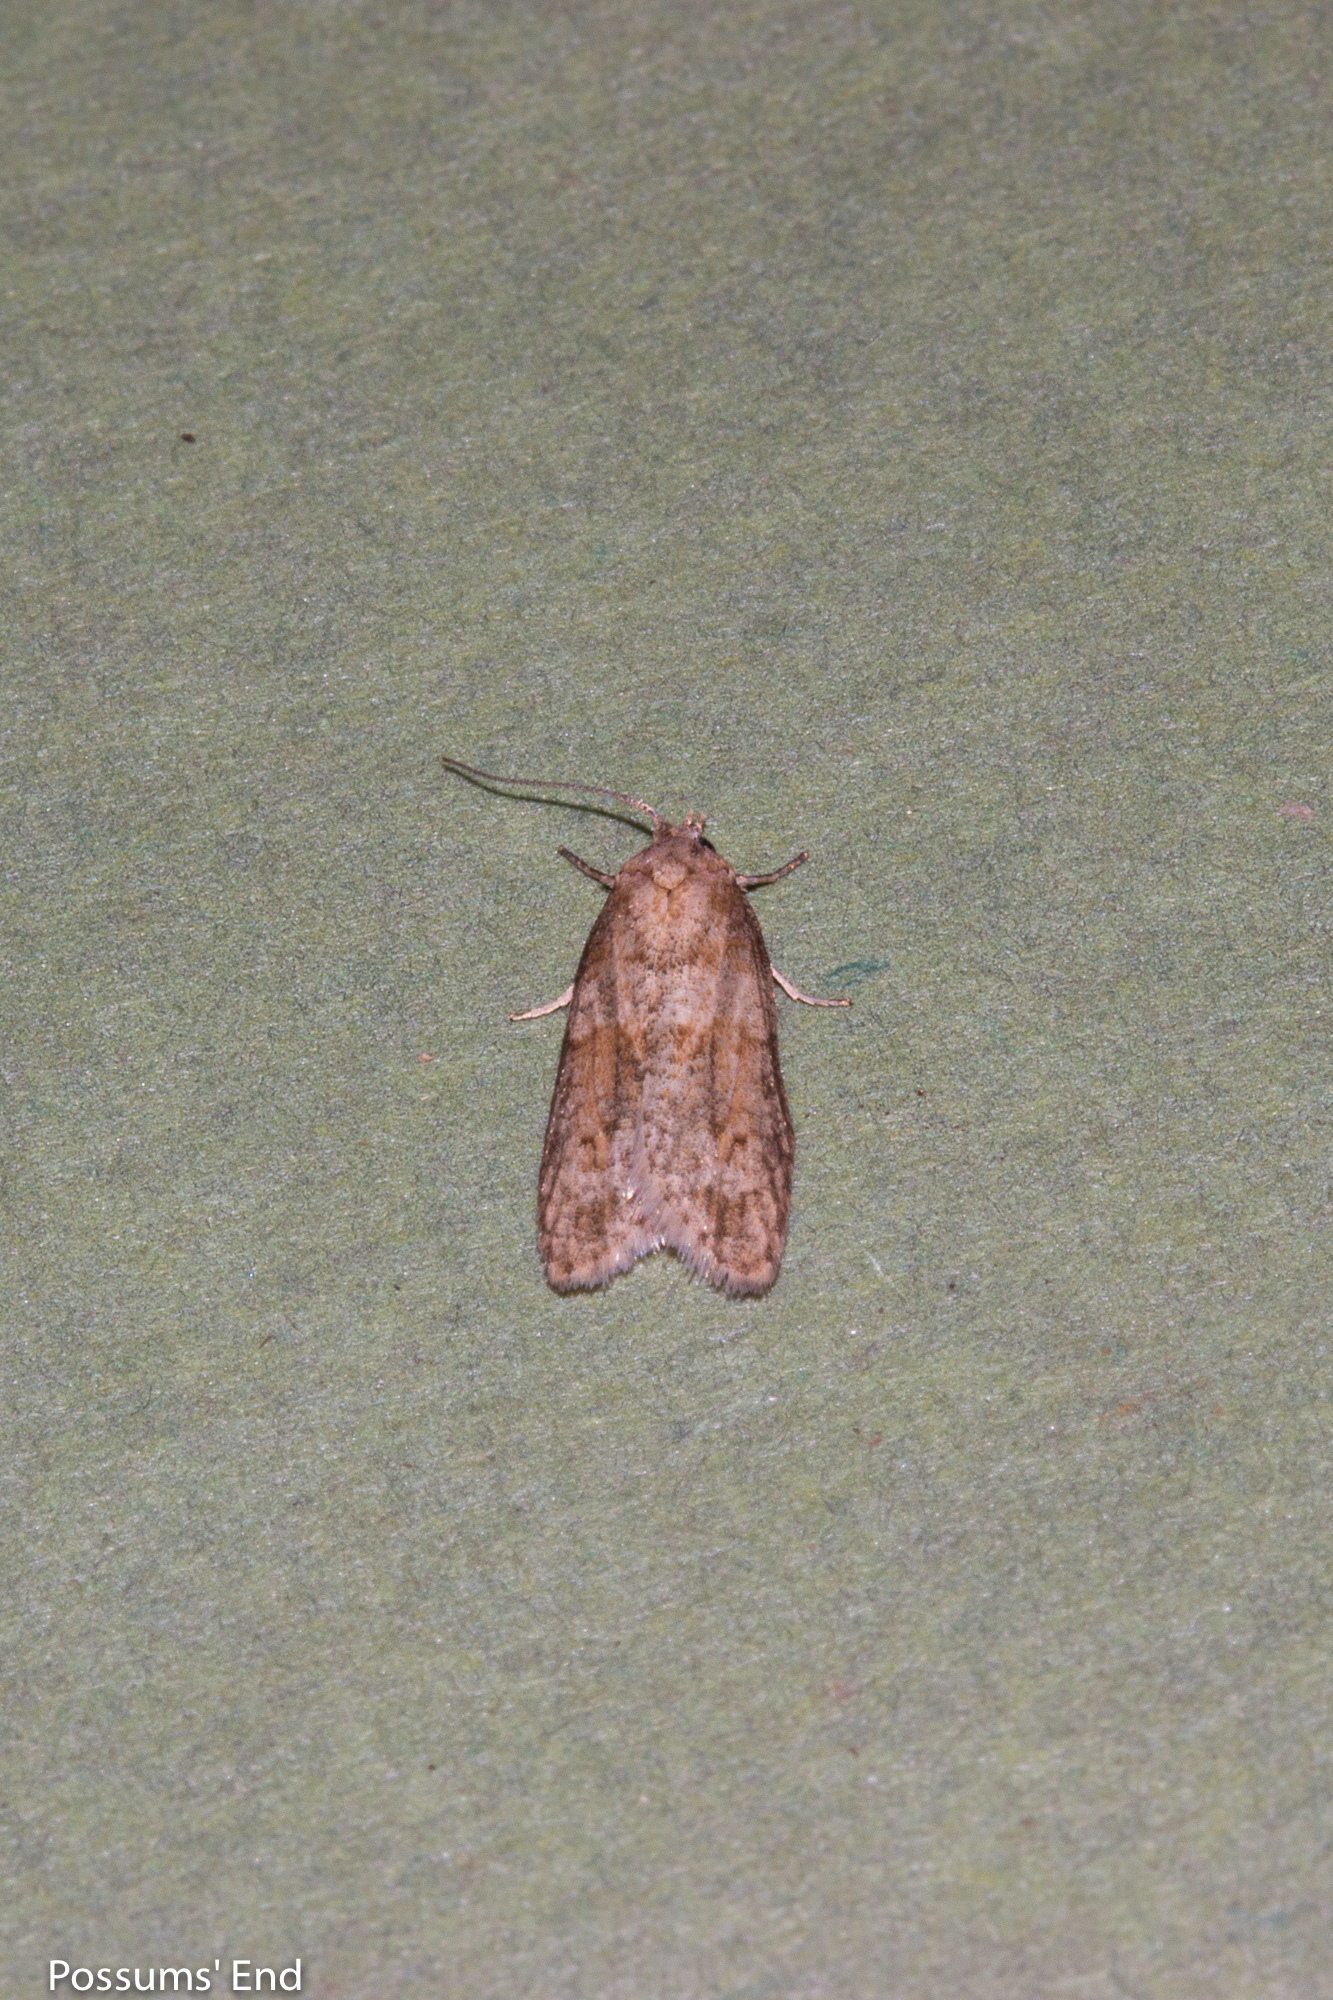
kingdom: Animalia
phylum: Arthropoda
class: Insecta
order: Lepidoptera
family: Tortricidae
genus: Prothelymna
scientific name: Prothelymna antiquana
